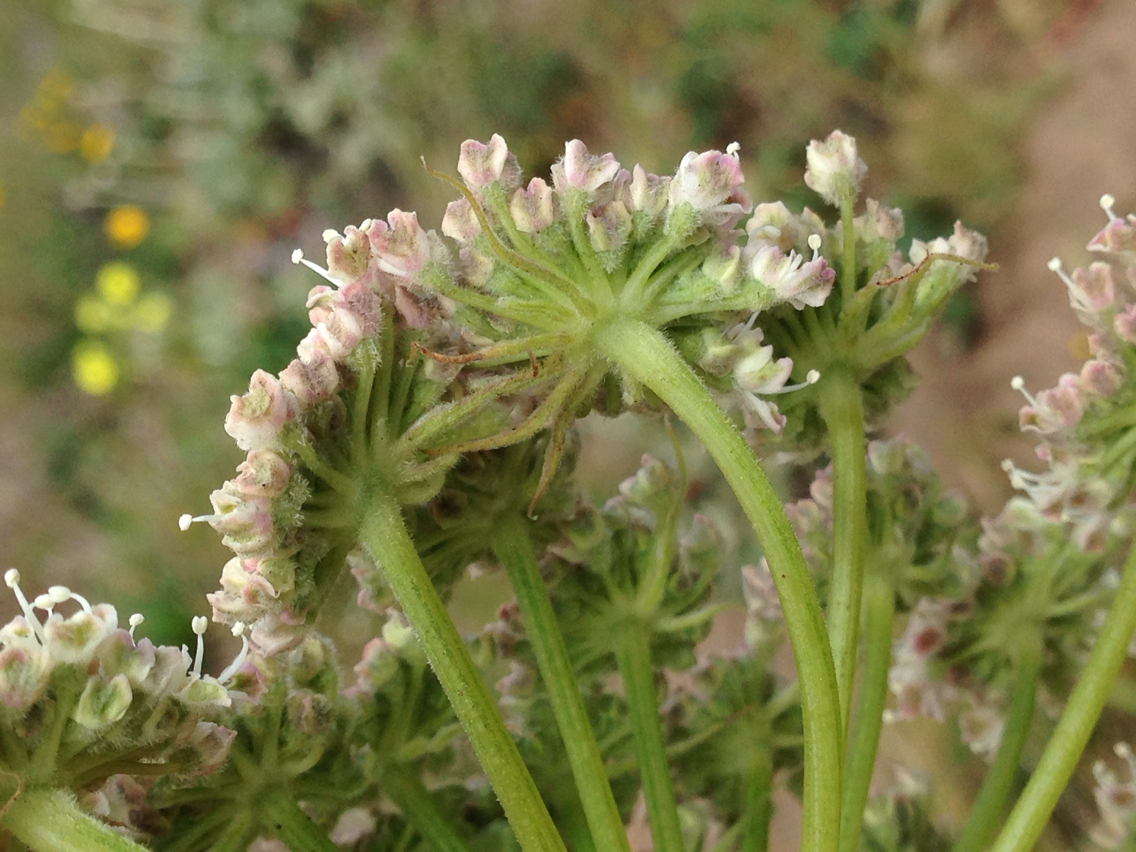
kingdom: Plantae
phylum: Tracheophyta
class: Magnoliopsida
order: Apiales
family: Apiaceae
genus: Angelica
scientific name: Angelica hendersonii
